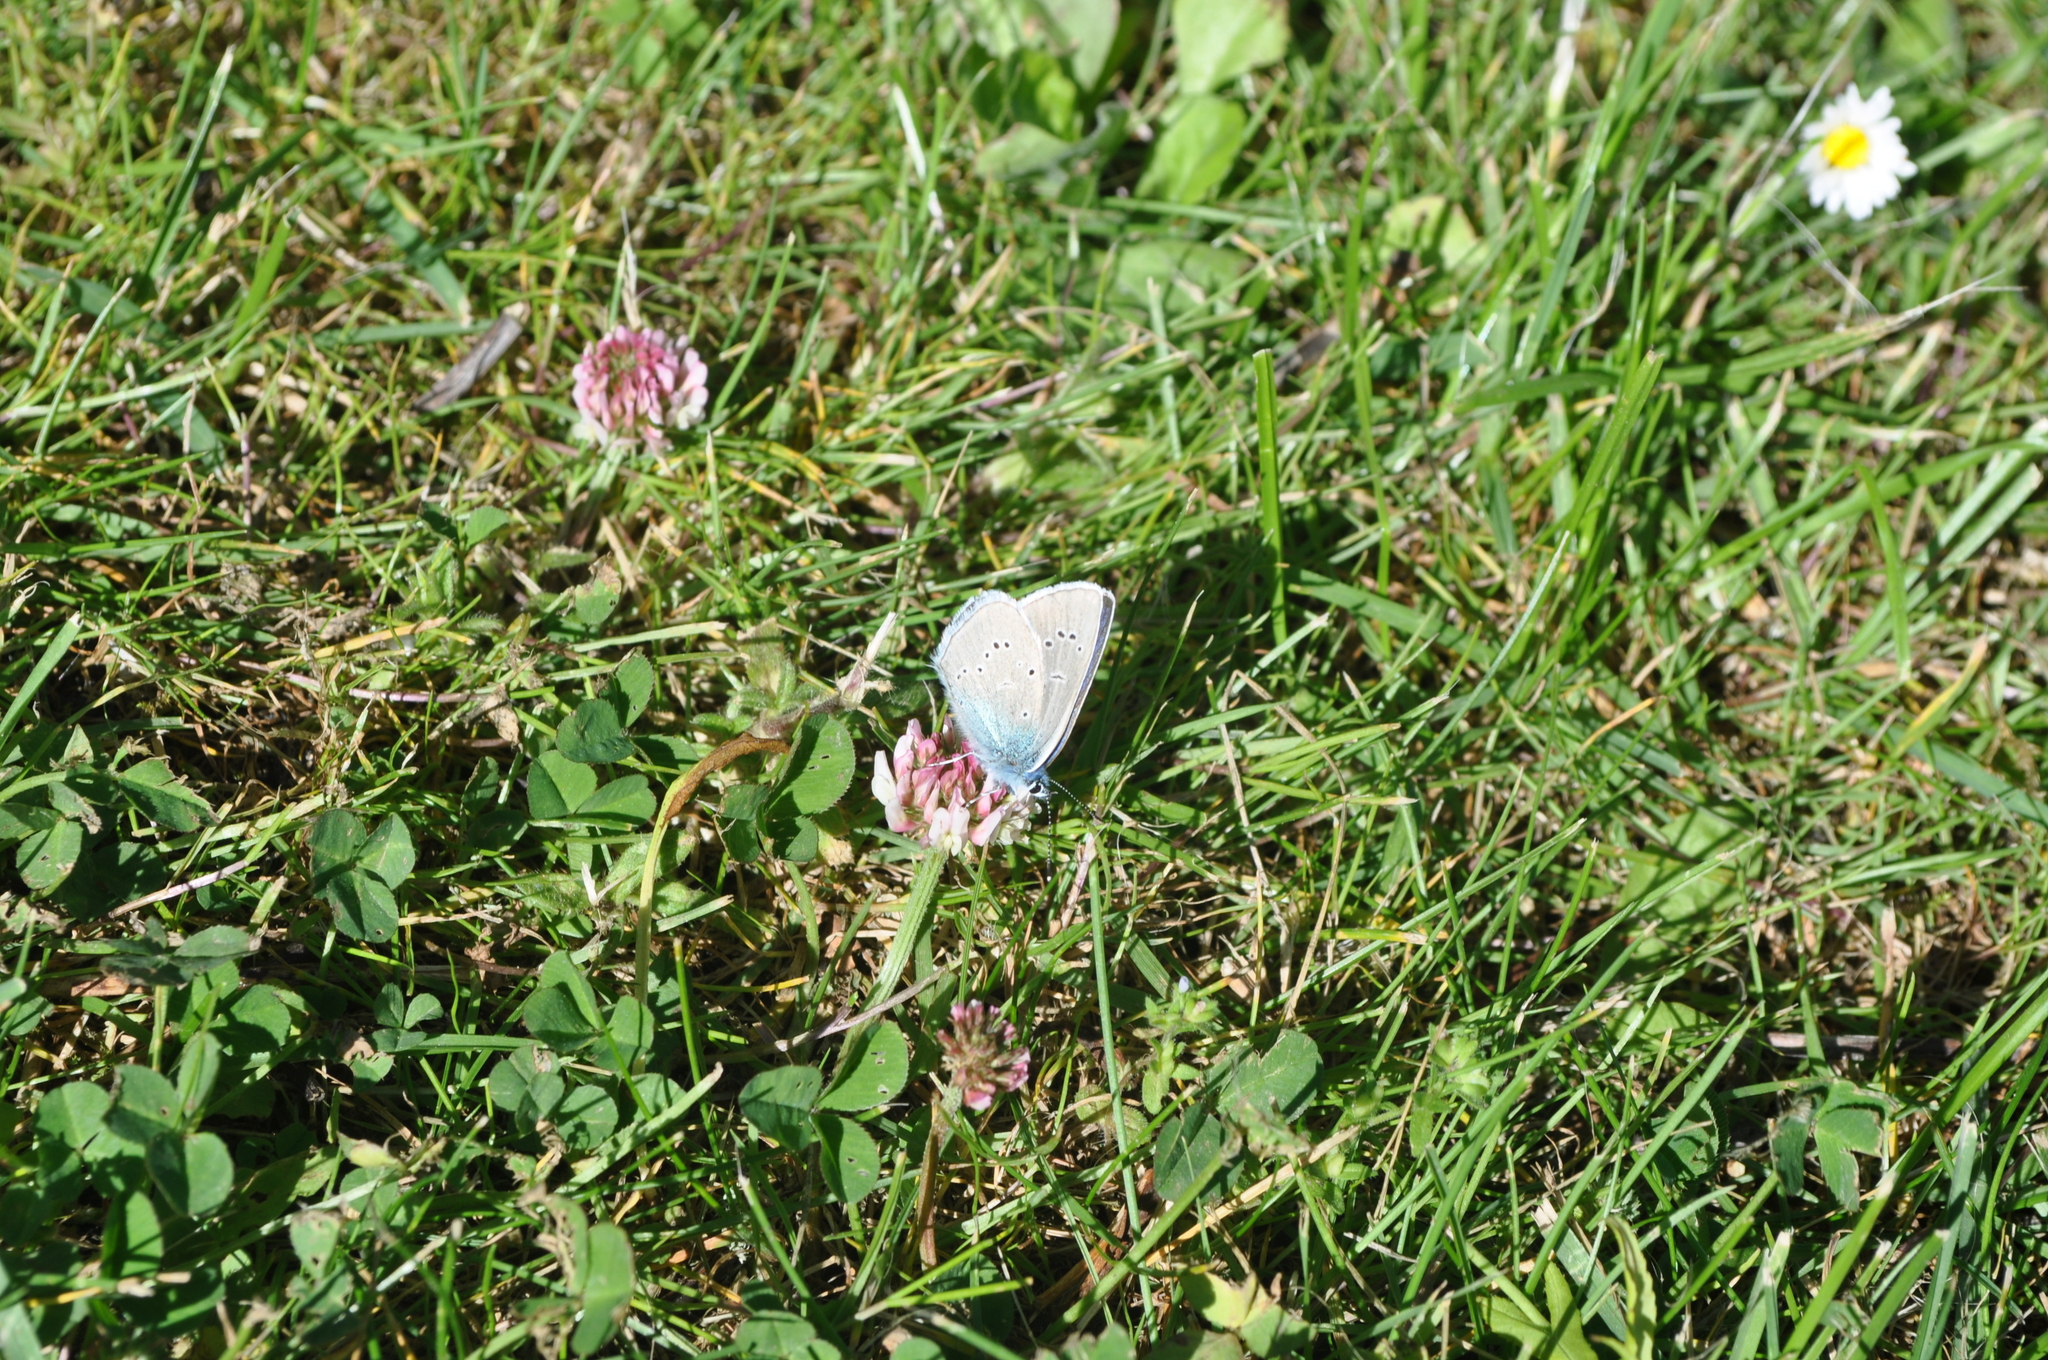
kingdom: Animalia
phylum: Arthropoda
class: Insecta
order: Lepidoptera
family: Lycaenidae
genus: Cyaniris
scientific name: Cyaniris semiargus
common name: Mazarine blue
